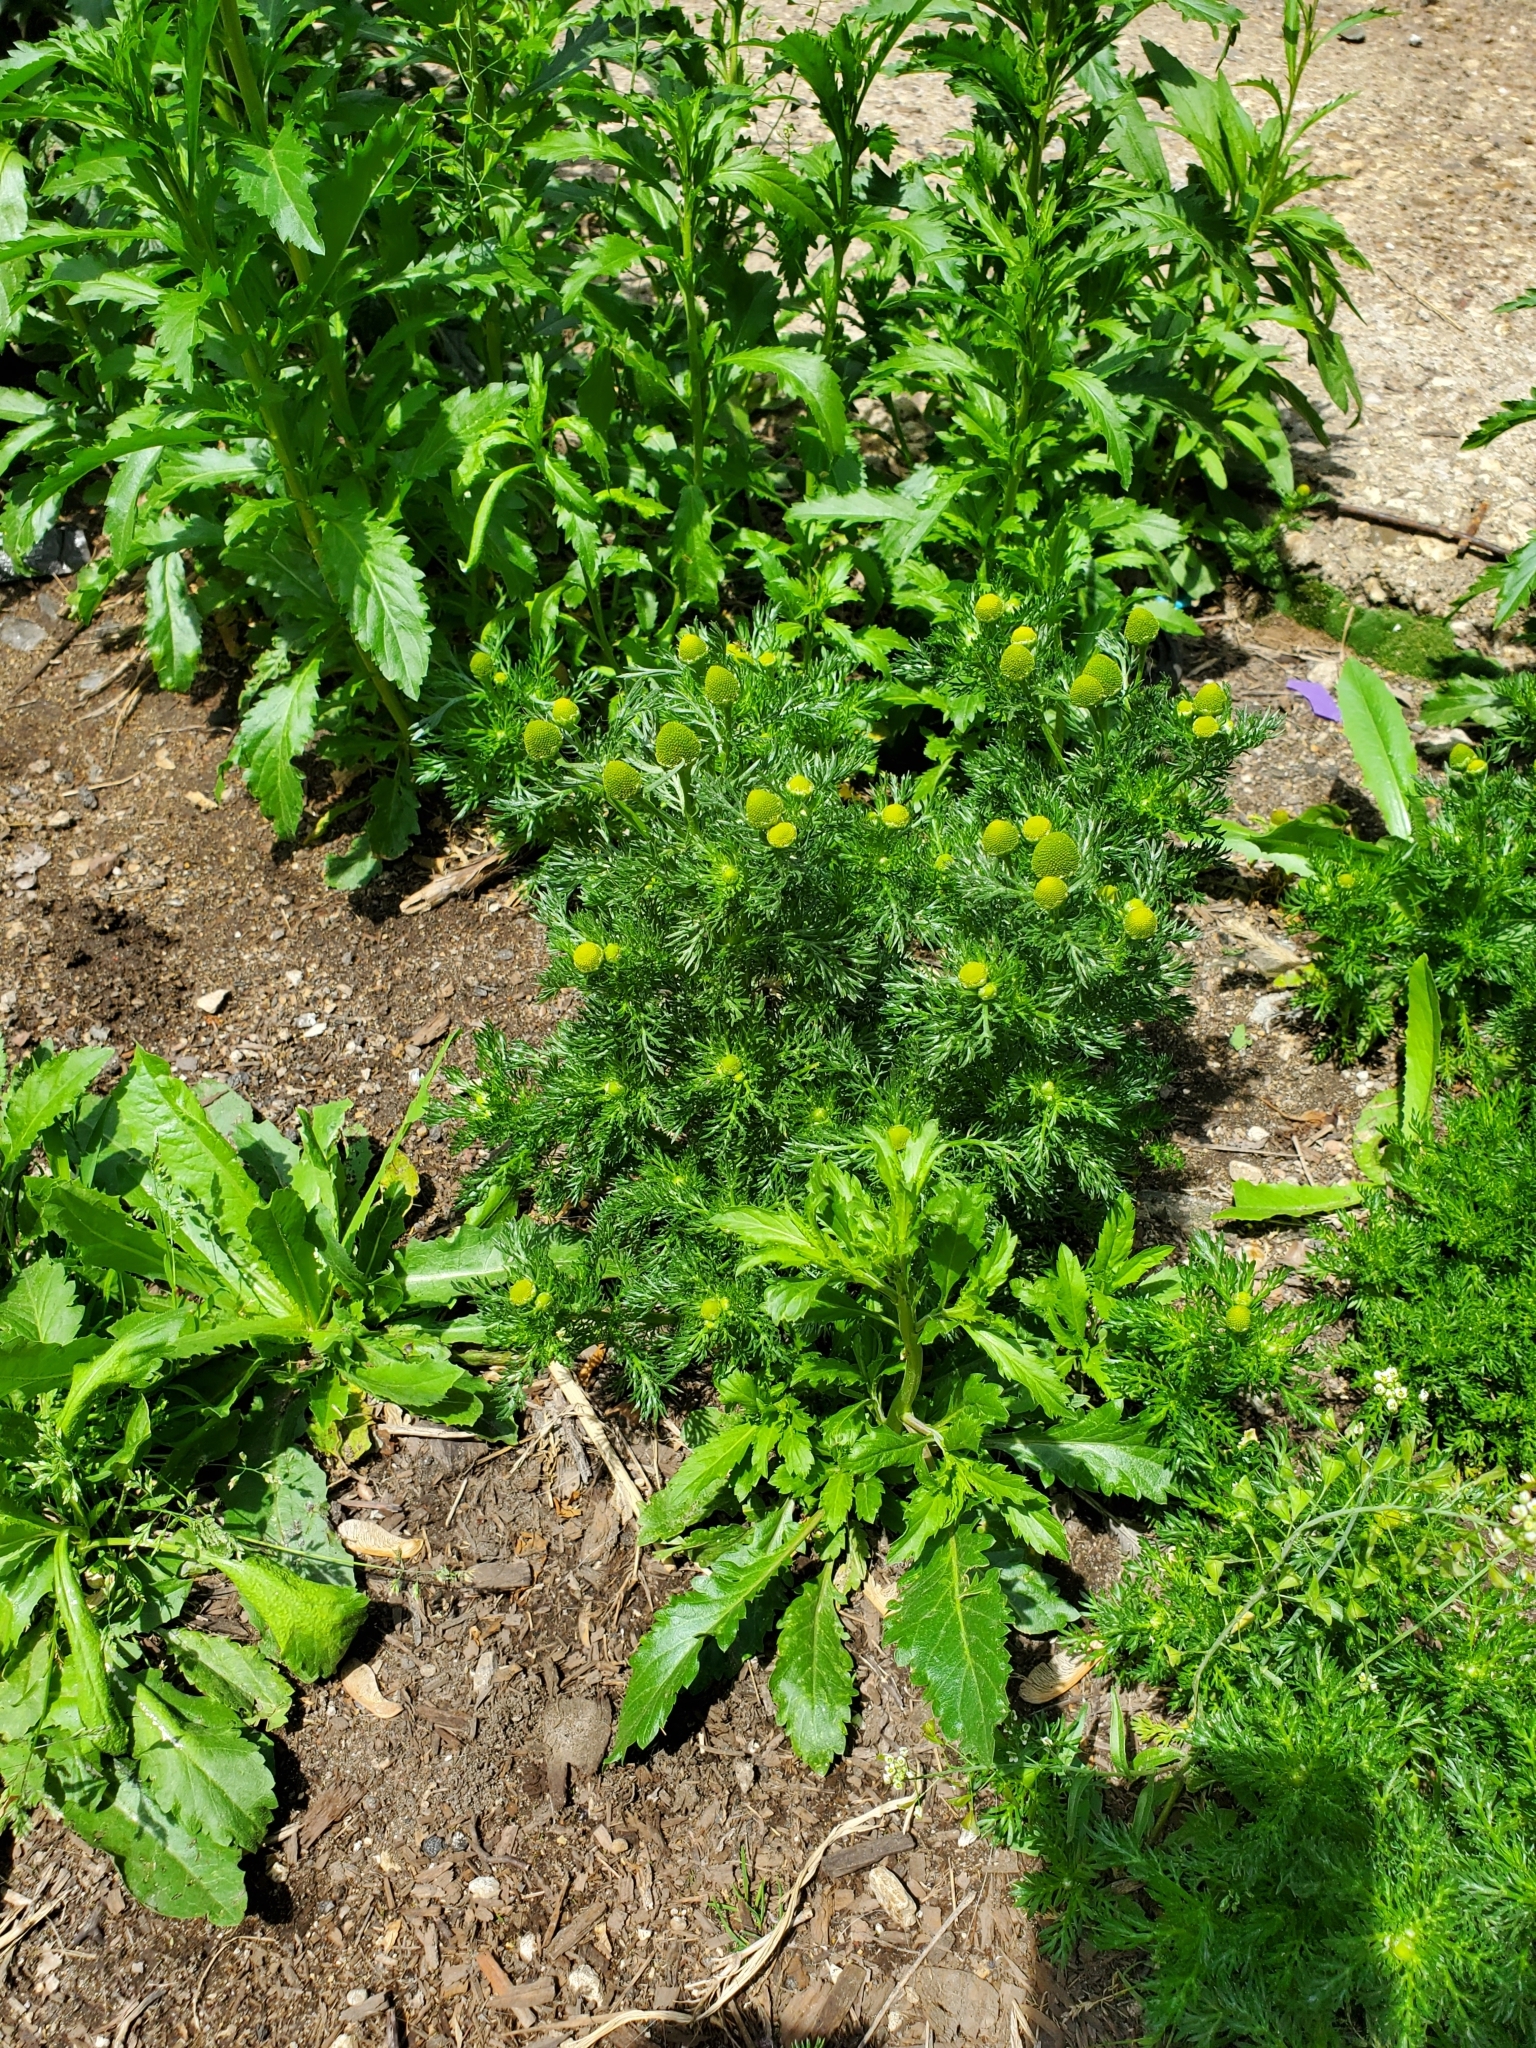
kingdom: Plantae
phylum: Tracheophyta
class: Magnoliopsida
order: Asterales
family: Asteraceae
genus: Matricaria
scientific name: Matricaria discoidea
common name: Disc mayweed
